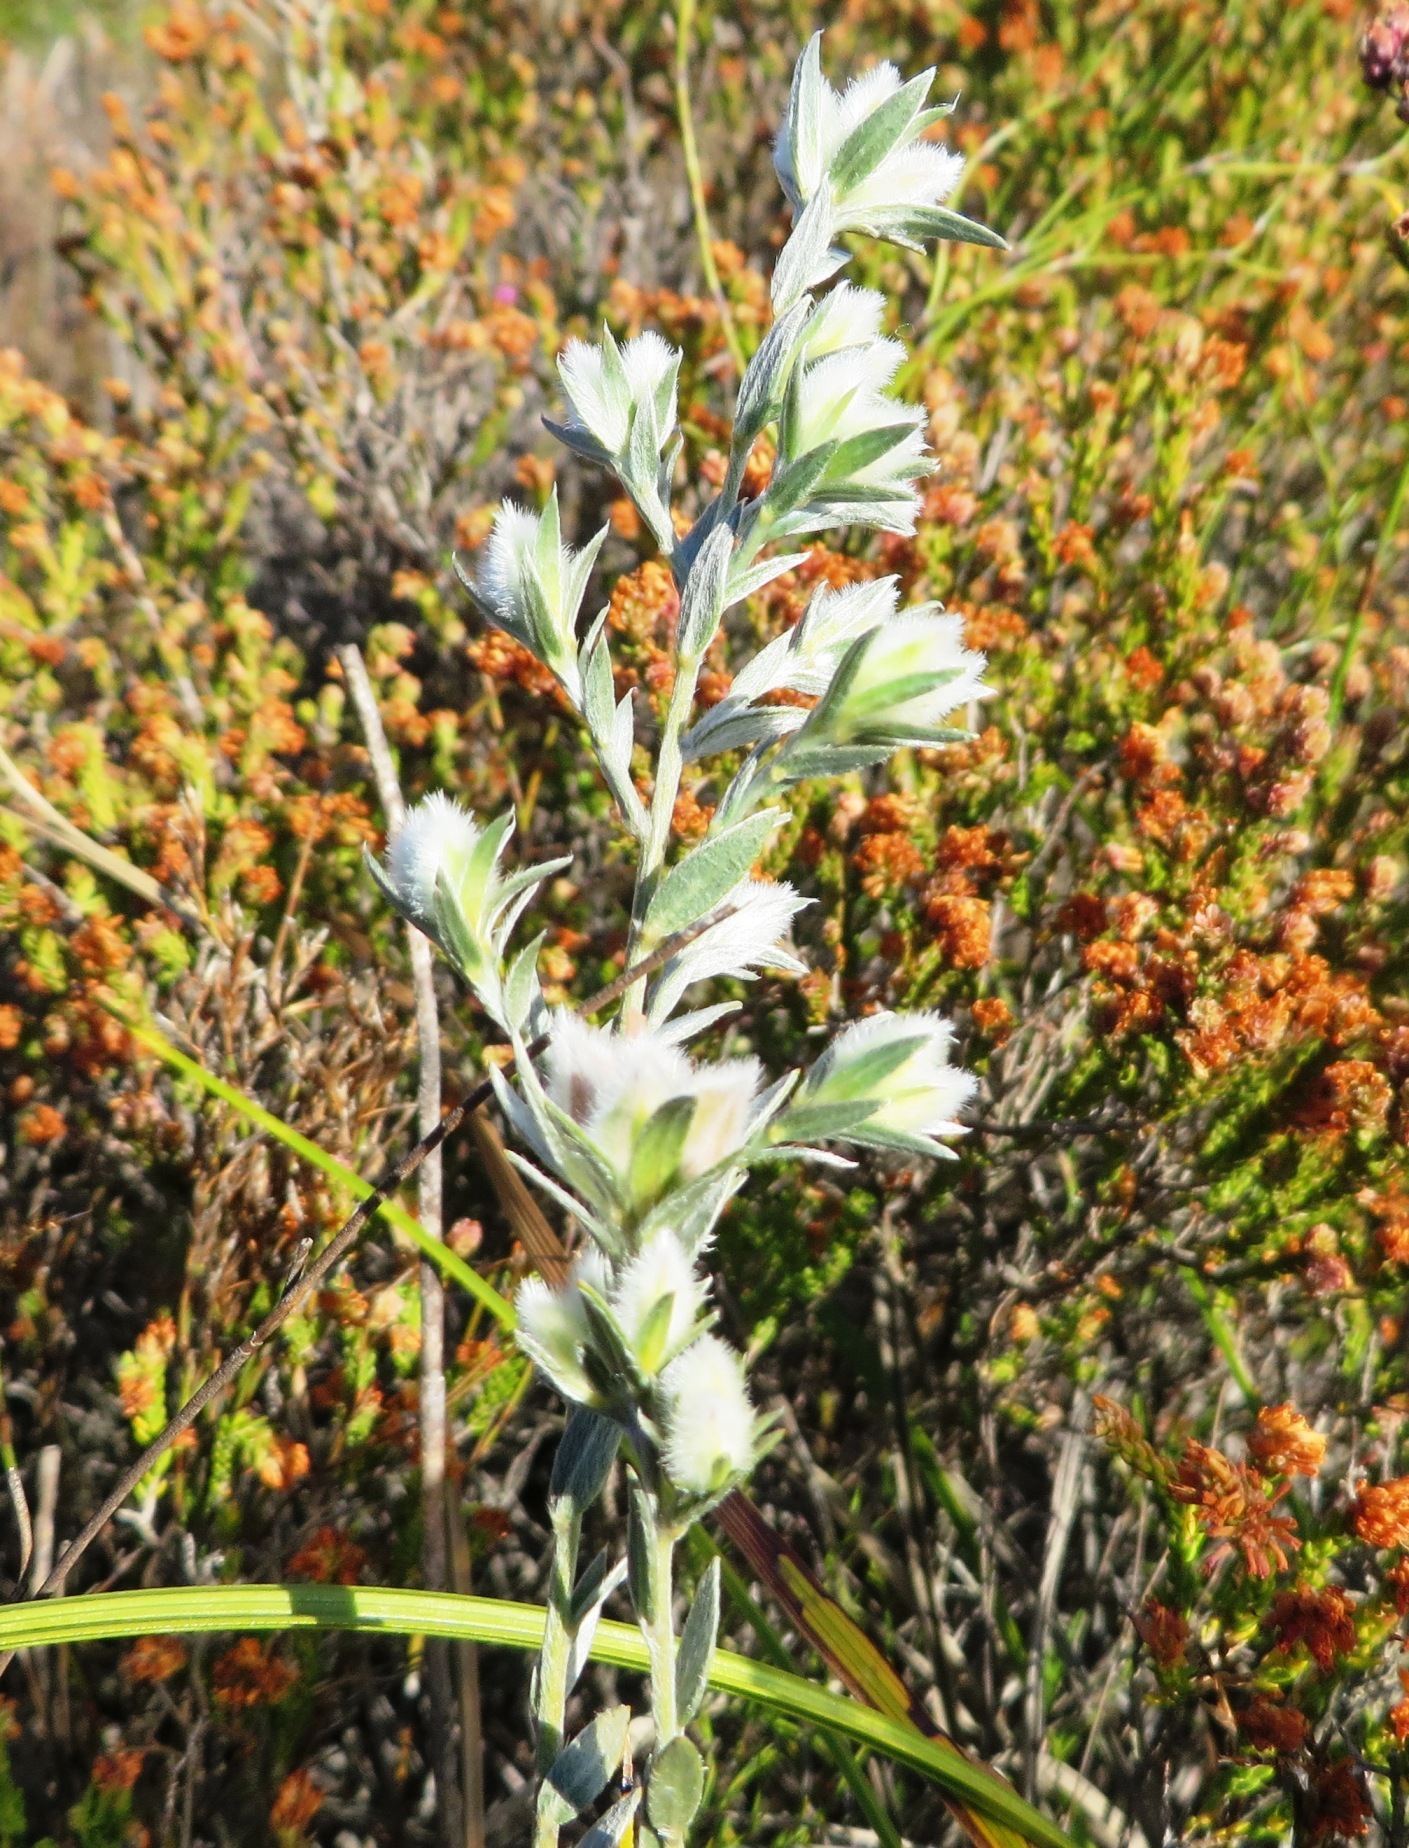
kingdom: Plantae
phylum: Tracheophyta
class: Magnoliopsida
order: Fabales
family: Fabaceae
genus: Amphithalea
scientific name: Amphithalea tomentosa
